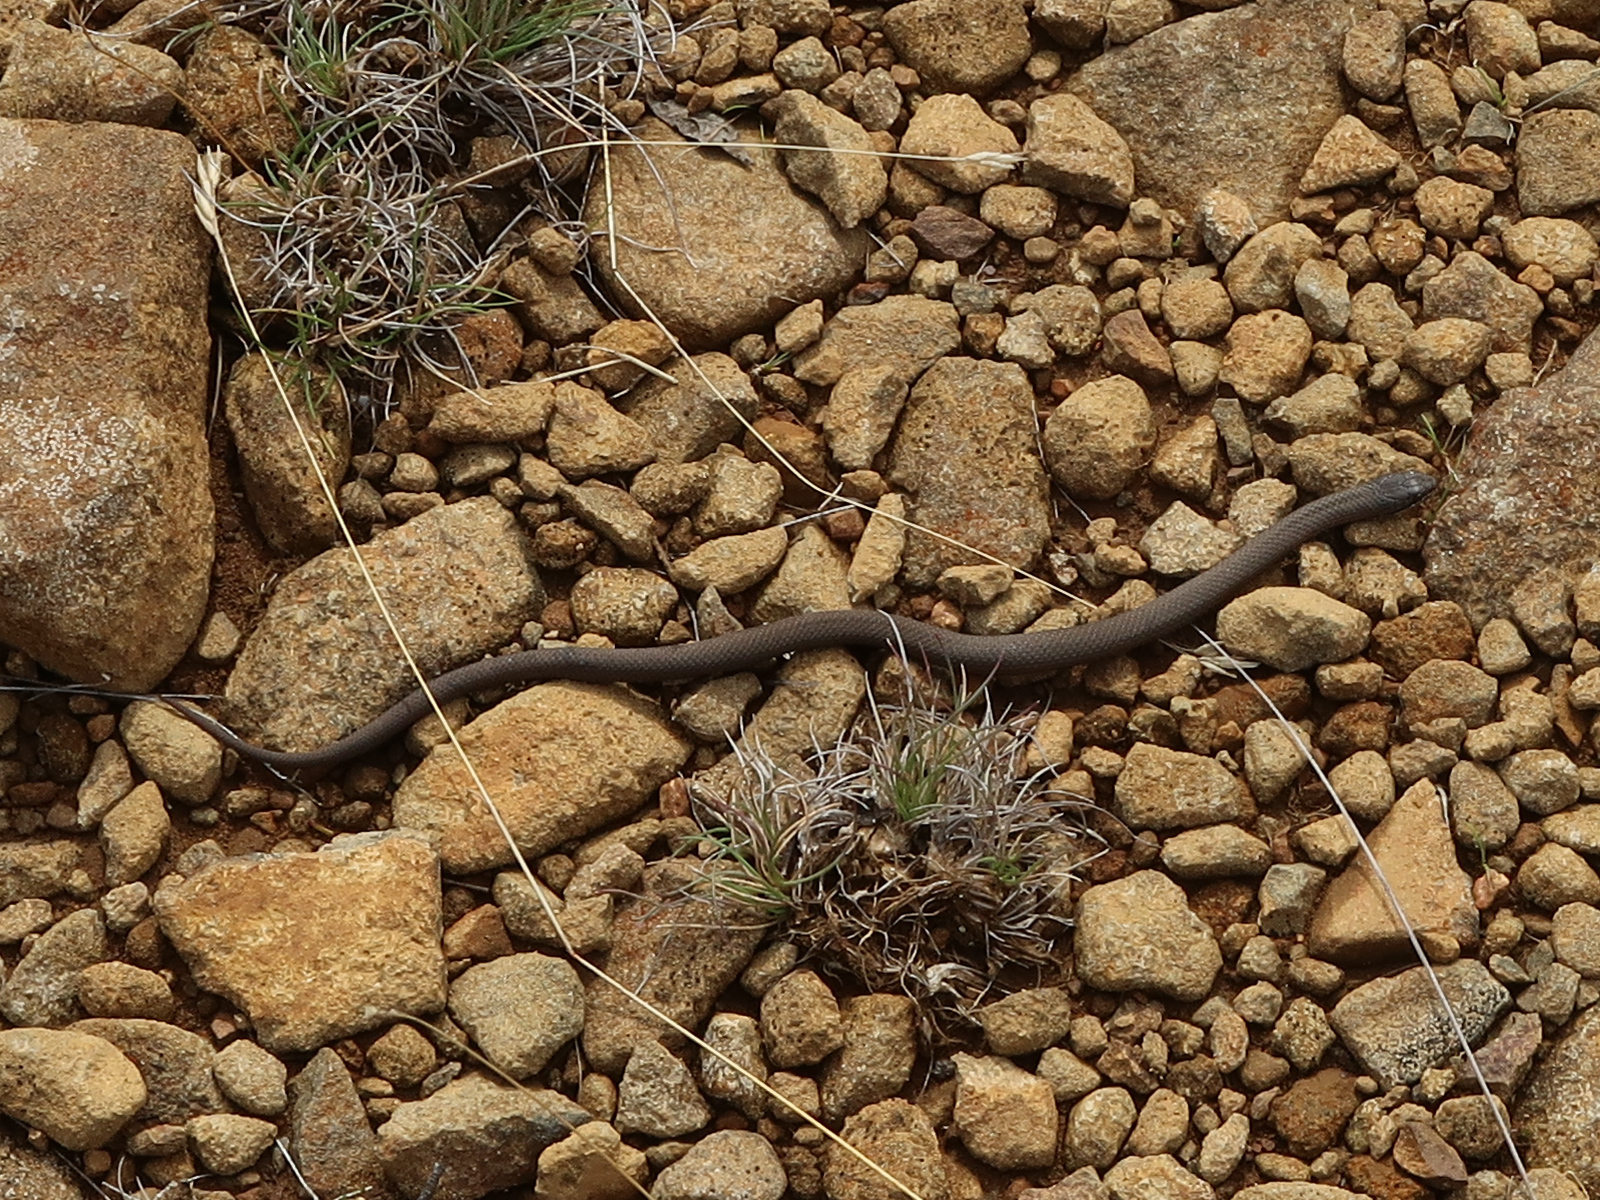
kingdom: Animalia
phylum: Chordata
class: Squamata
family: Elapidae
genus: Drysdalia
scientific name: Drysdalia coronoides
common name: White-lipped snake
